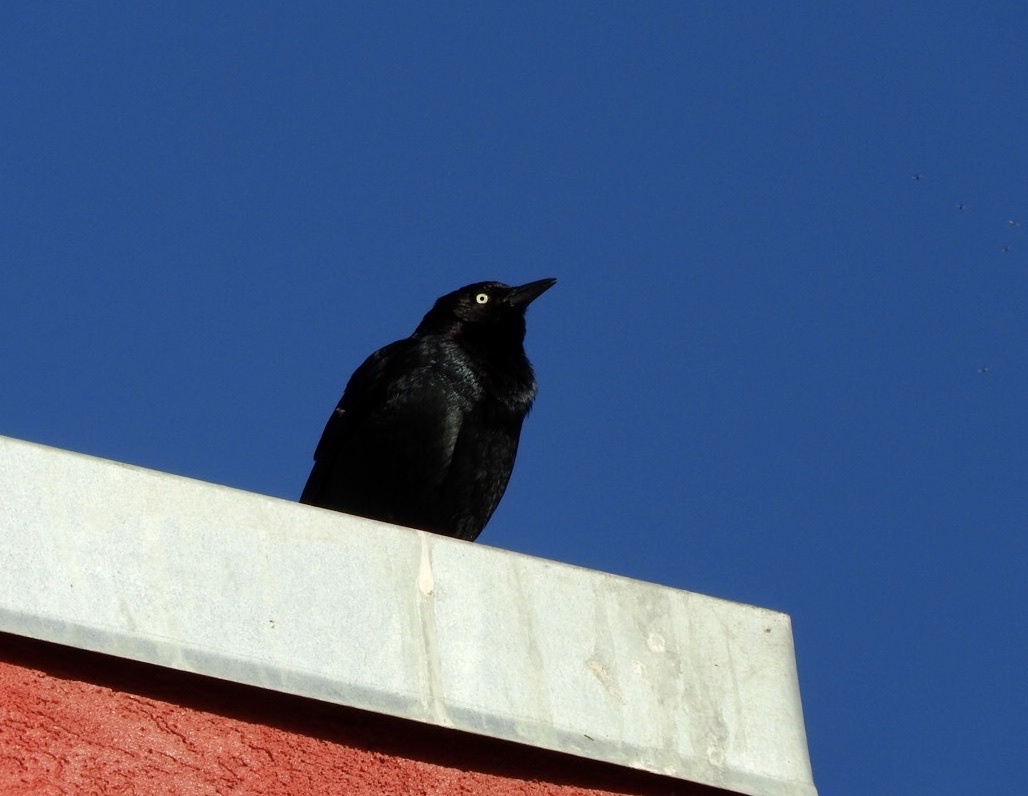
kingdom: Animalia
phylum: Chordata
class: Aves
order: Passeriformes
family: Icteridae
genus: Euphagus
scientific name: Euphagus cyanocephalus
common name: Brewer's blackbird
